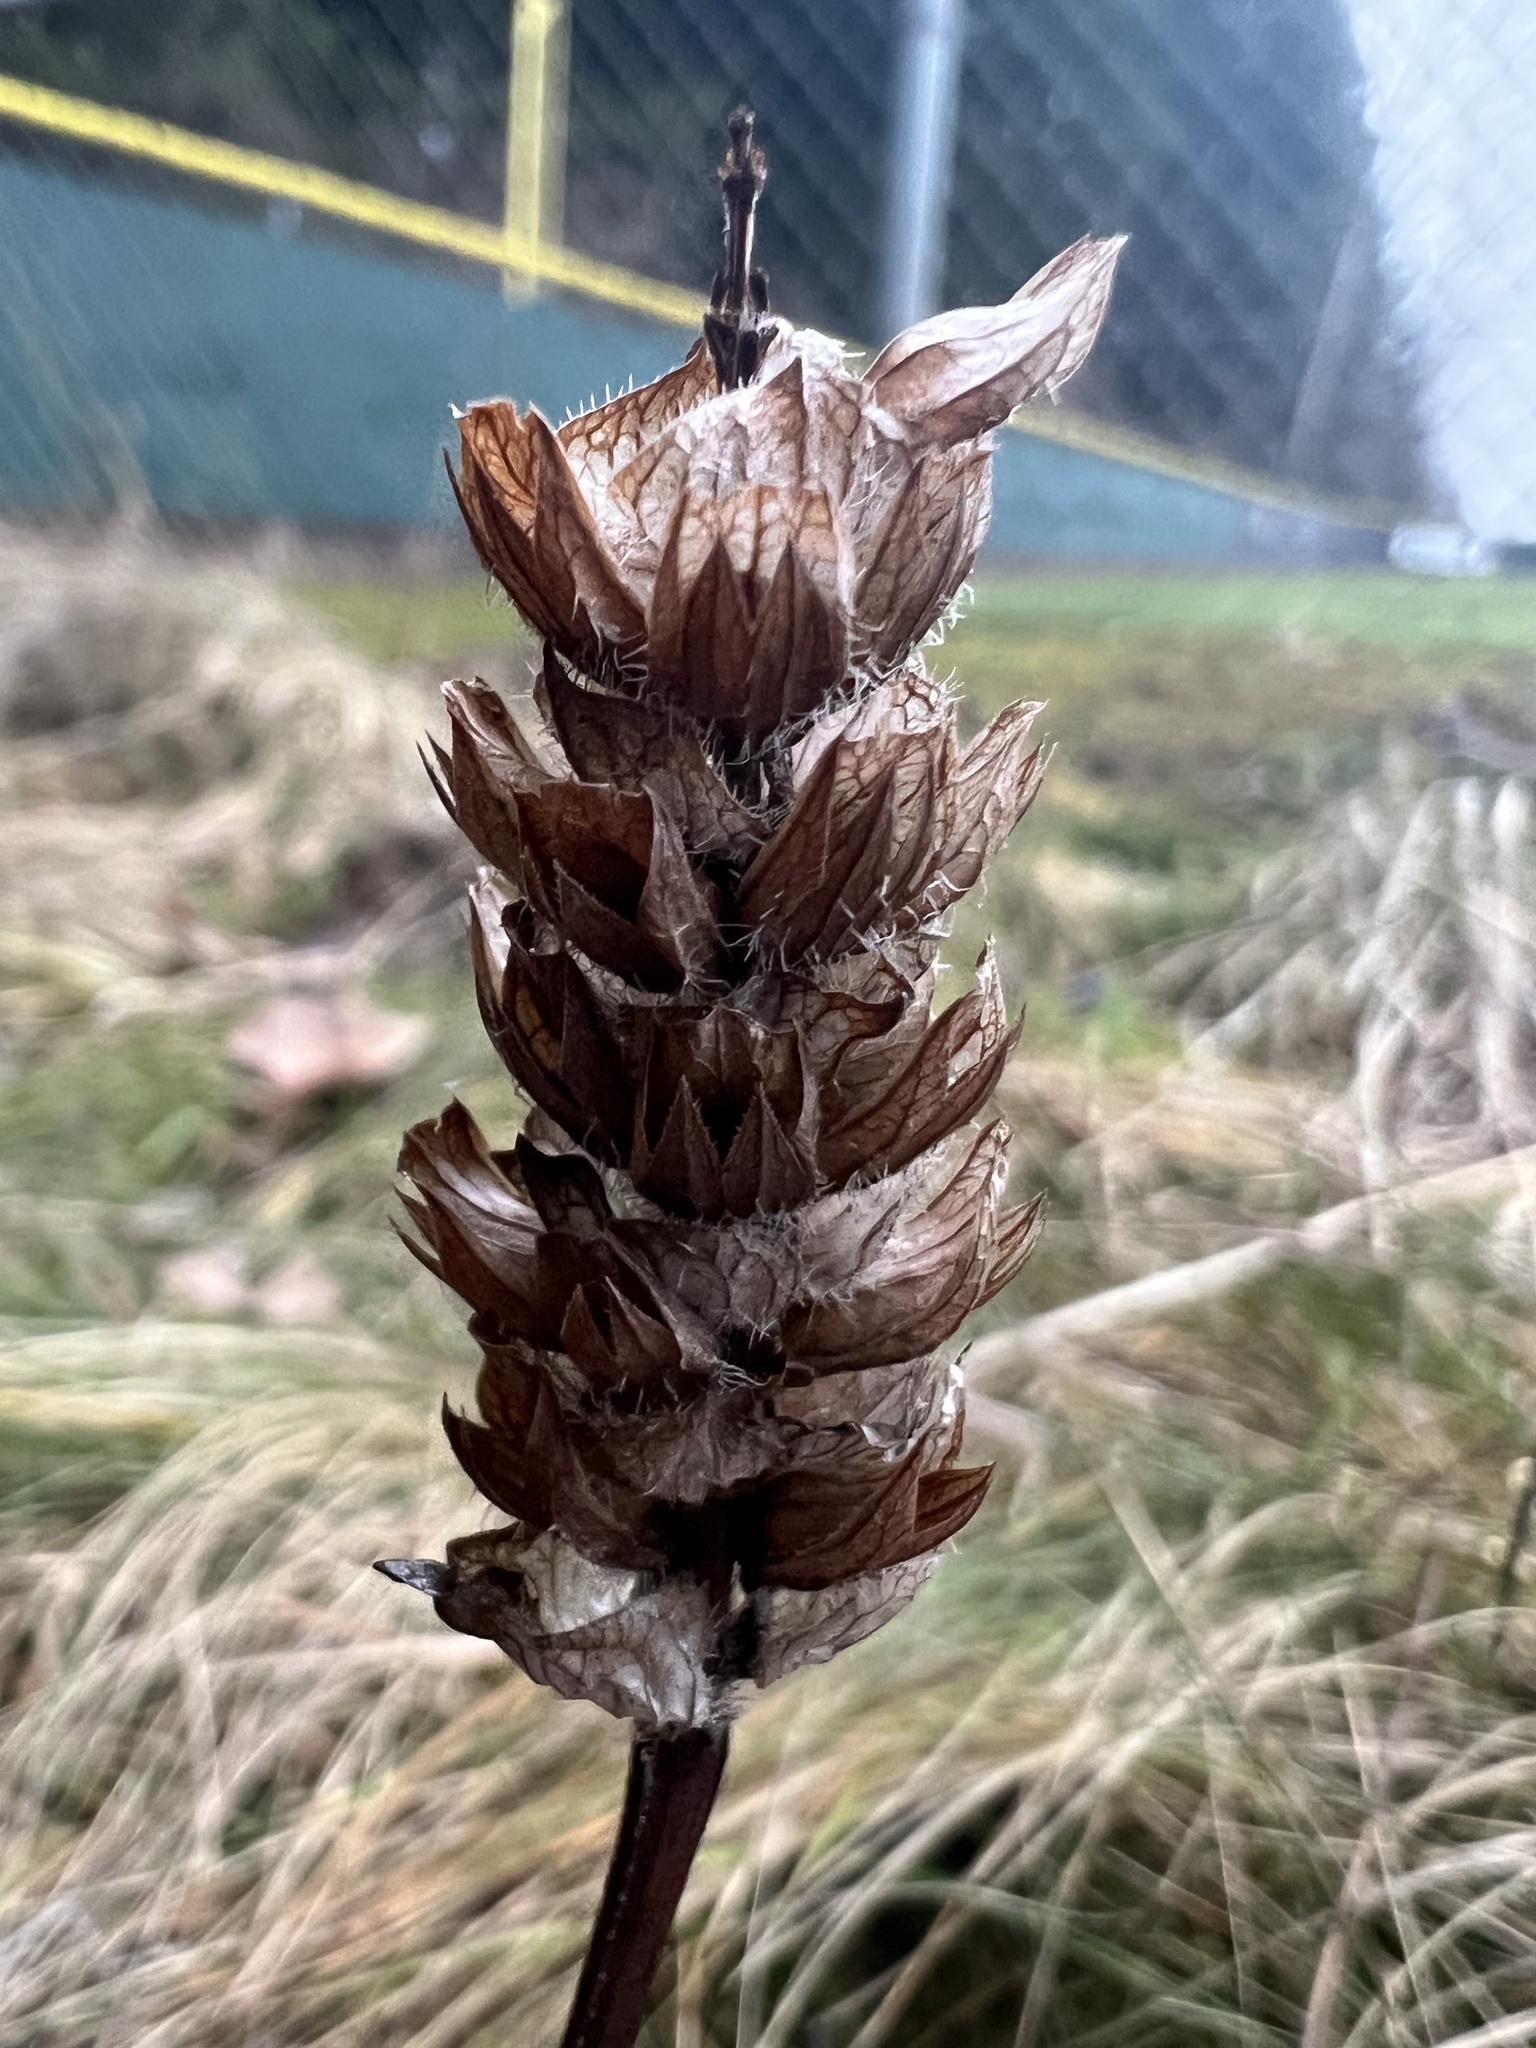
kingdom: Plantae
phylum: Tracheophyta
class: Magnoliopsida
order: Lamiales
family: Lamiaceae
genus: Prunella
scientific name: Prunella vulgaris
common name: Heal-all
